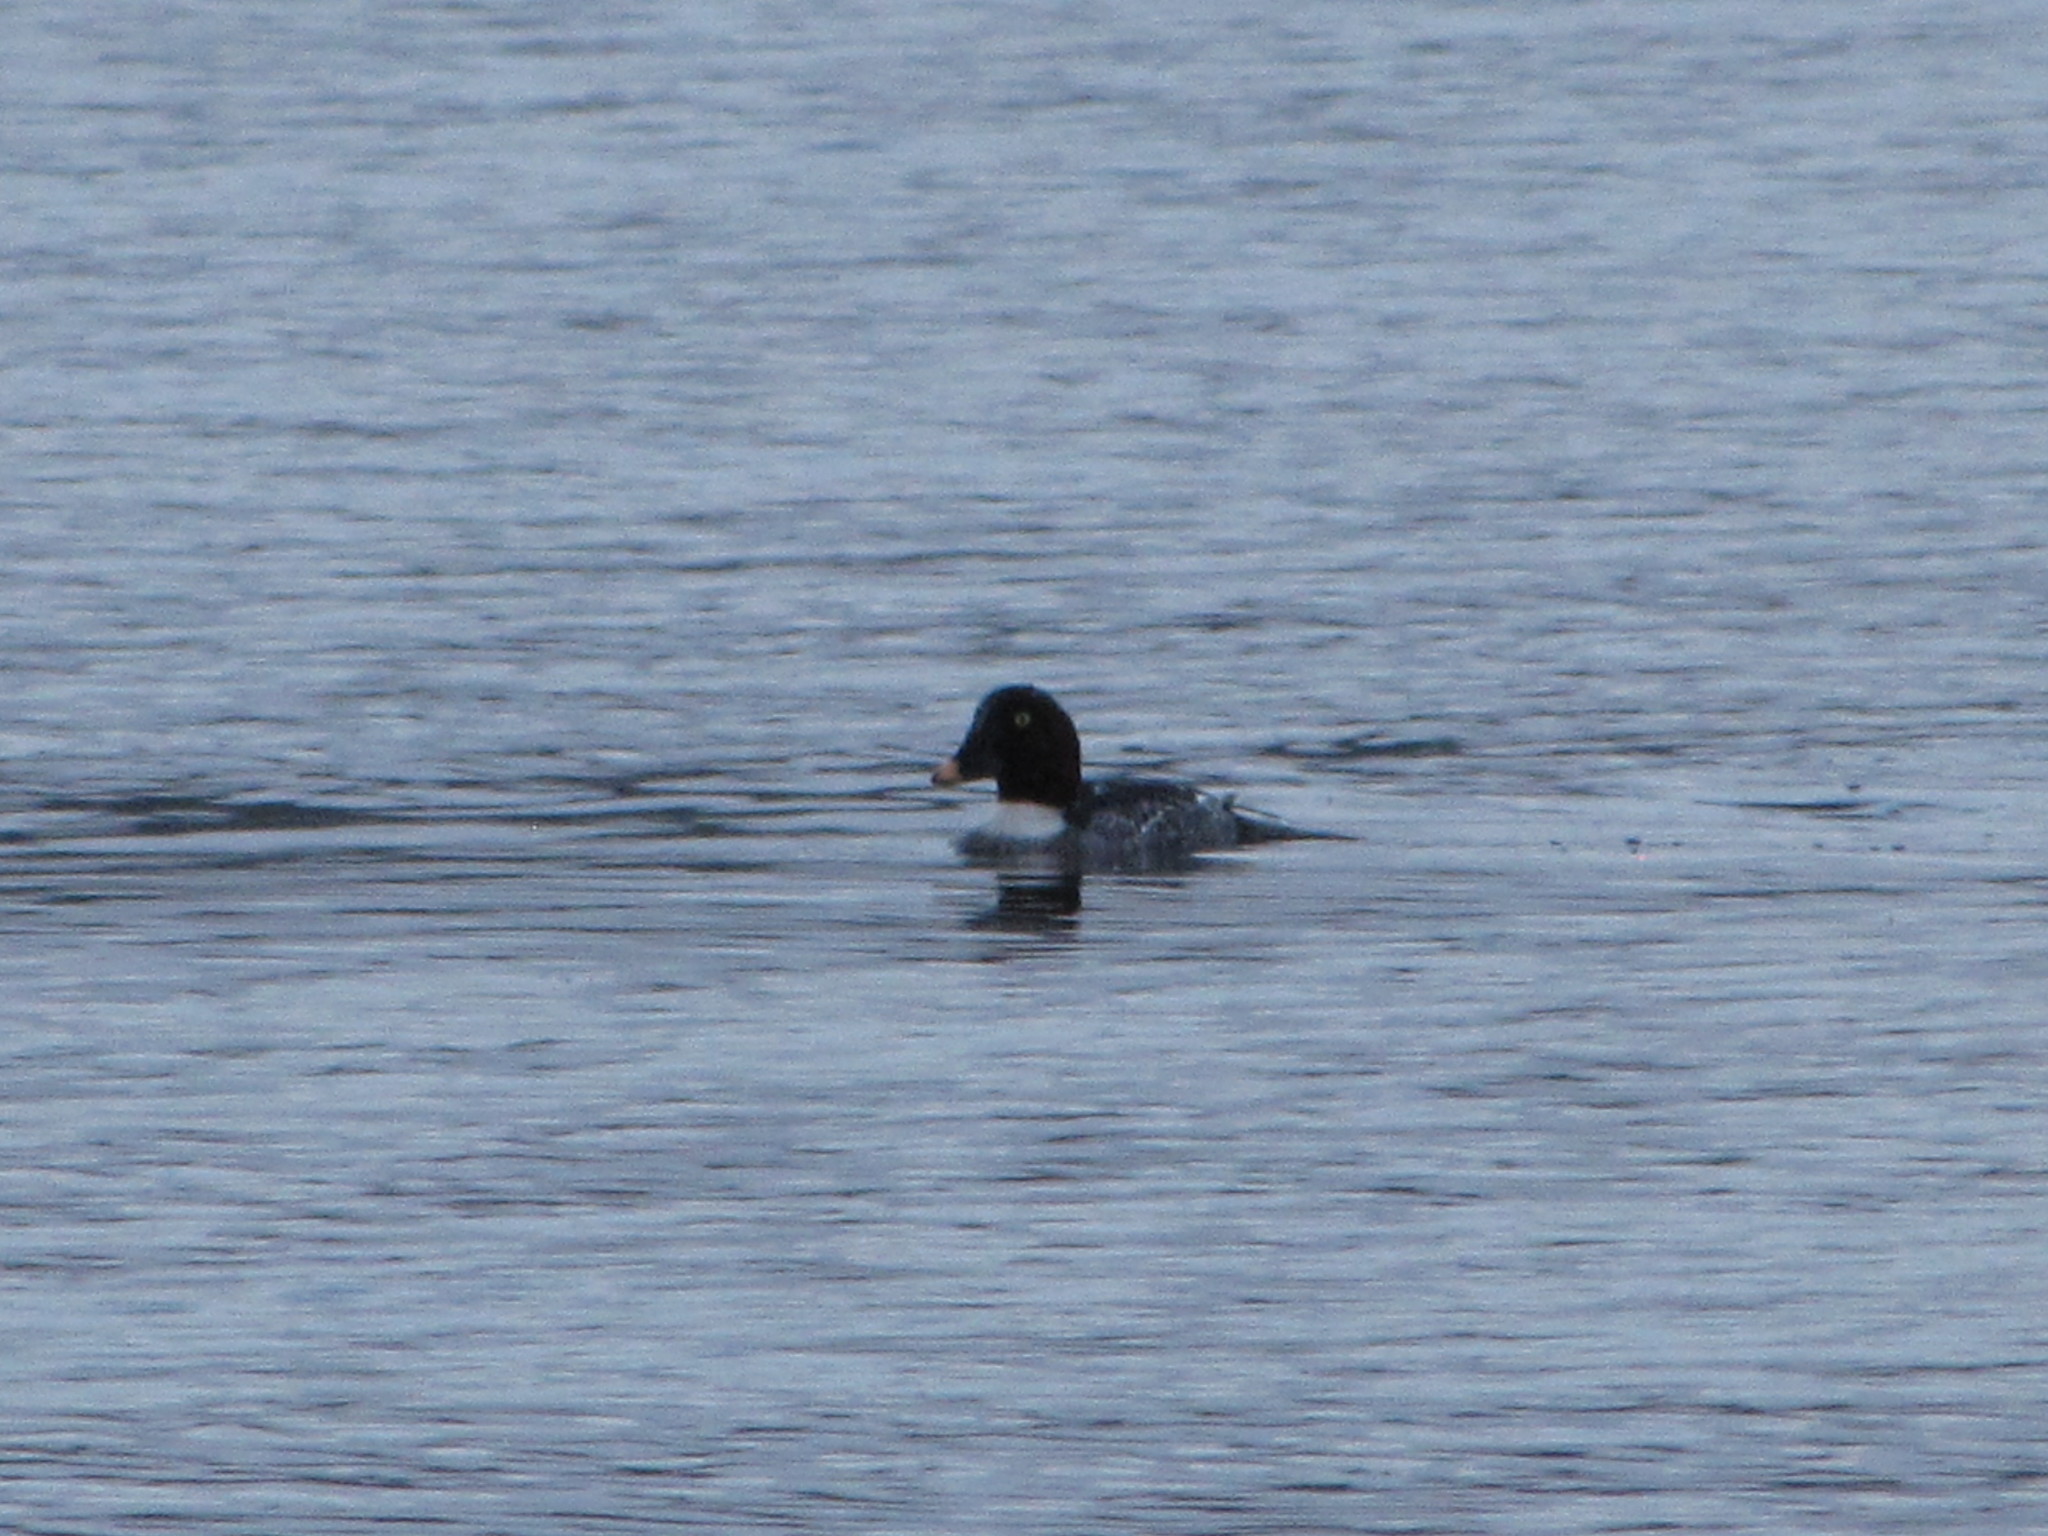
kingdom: Animalia
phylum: Chordata
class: Aves
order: Anseriformes
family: Anatidae
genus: Bucephala
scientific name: Bucephala clangula
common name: Common goldeneye
